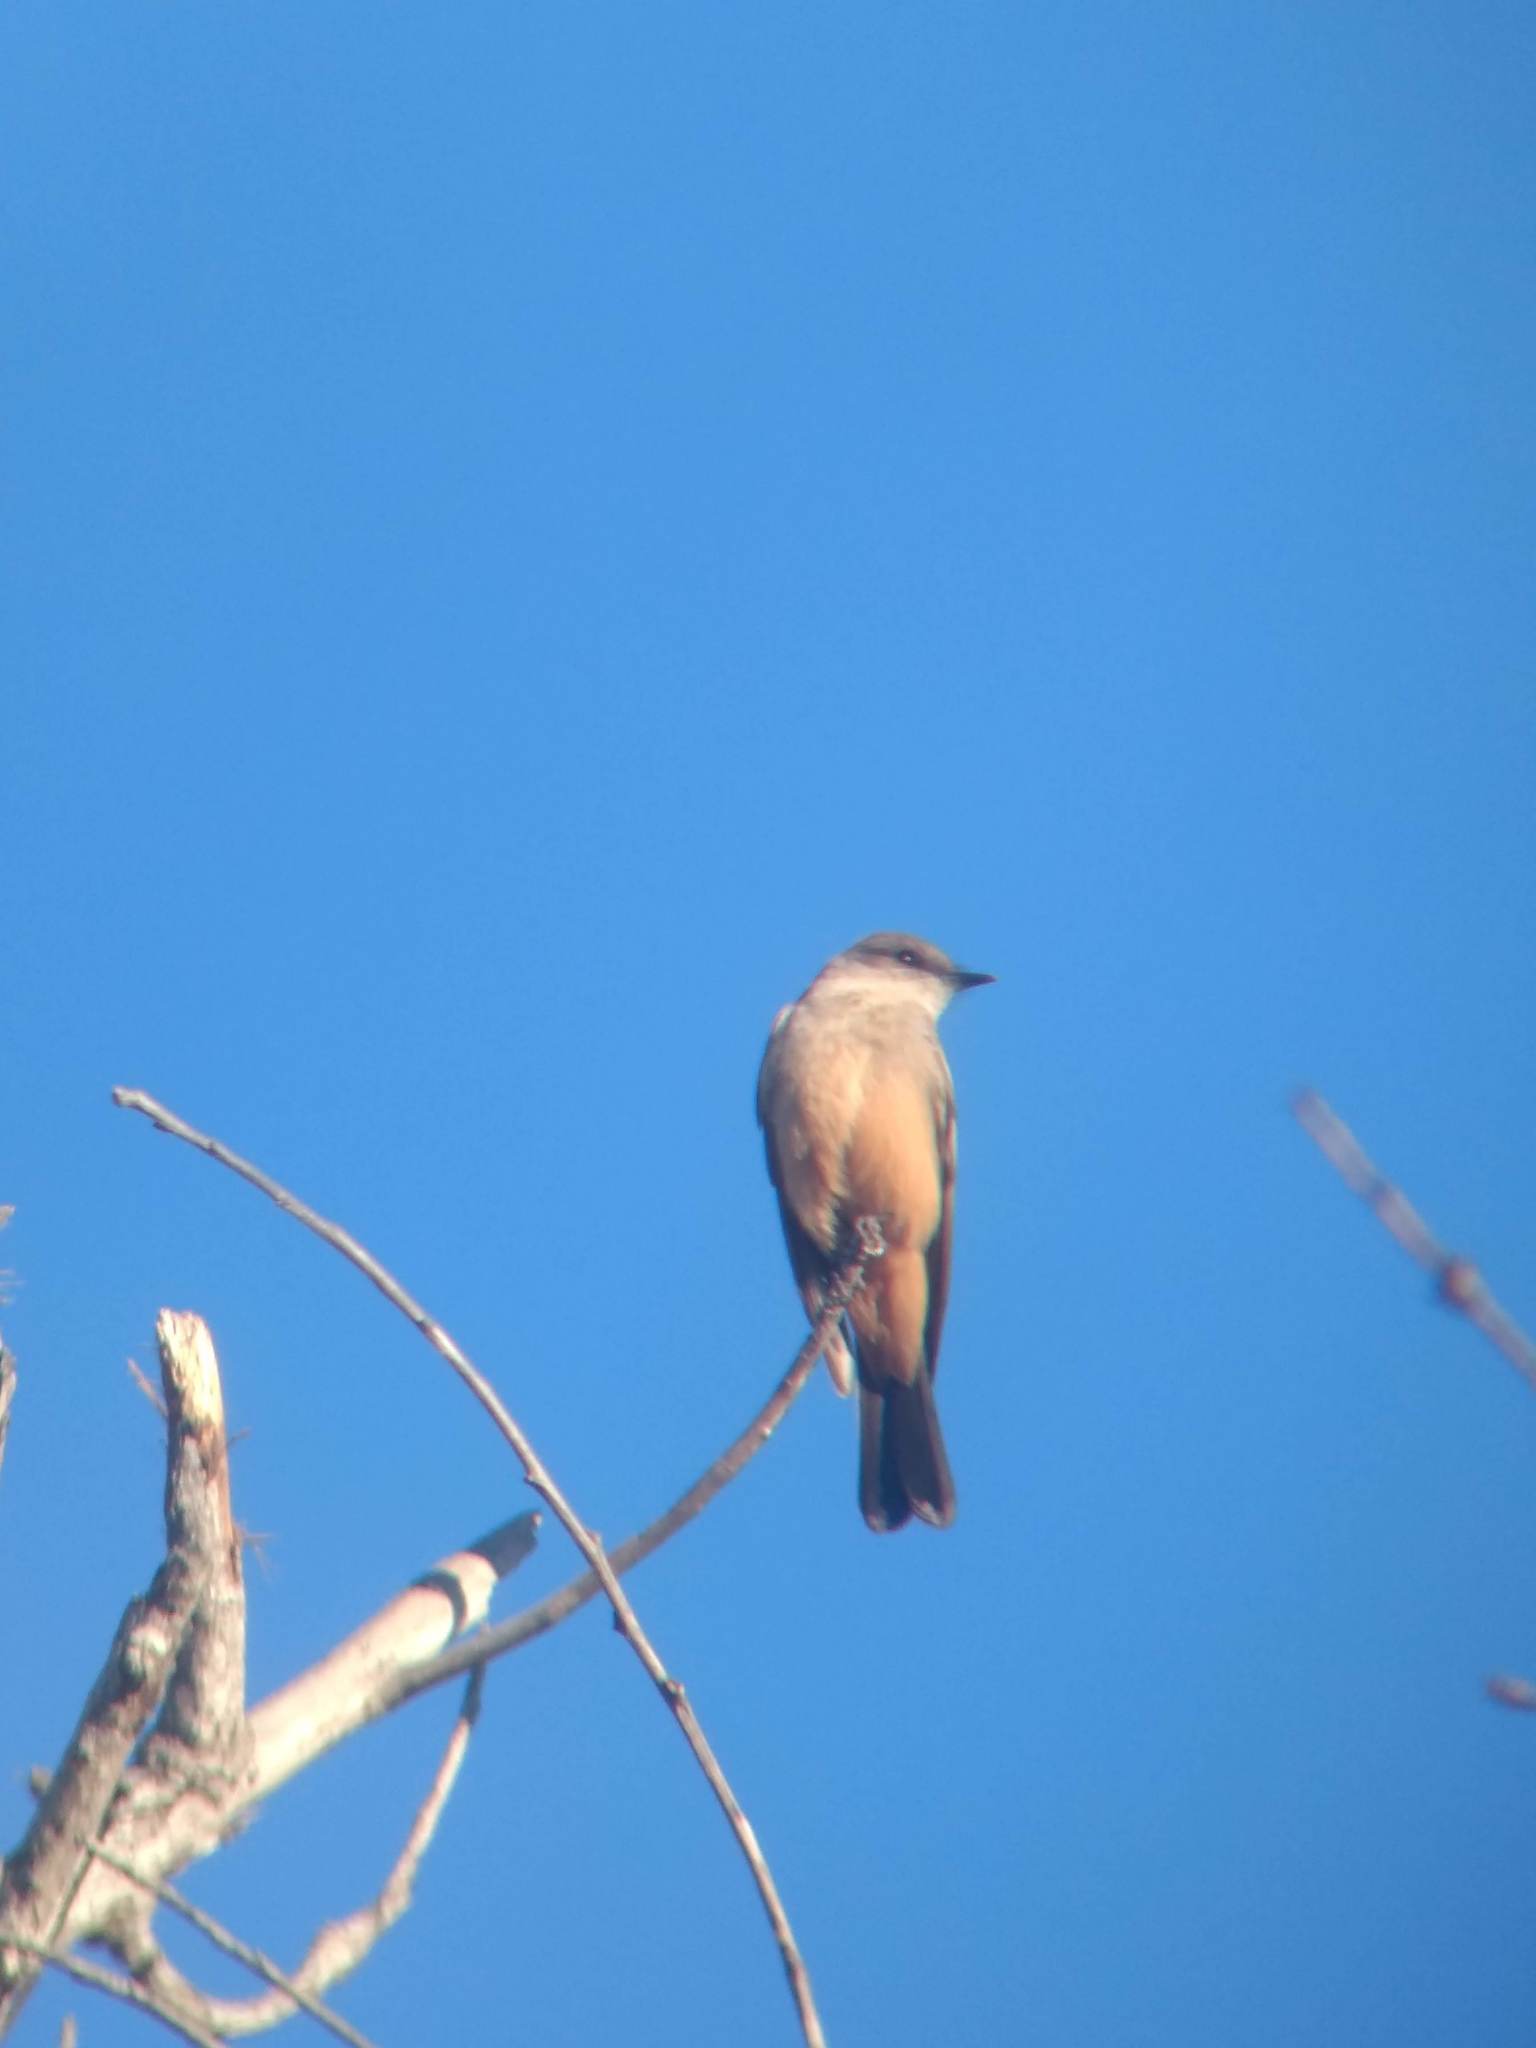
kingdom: Animalia
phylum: Chordata
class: Aves
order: Passeriformes
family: Tyrannidae
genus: Sayornis
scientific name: Sayornis saya
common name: Say's phoebe
